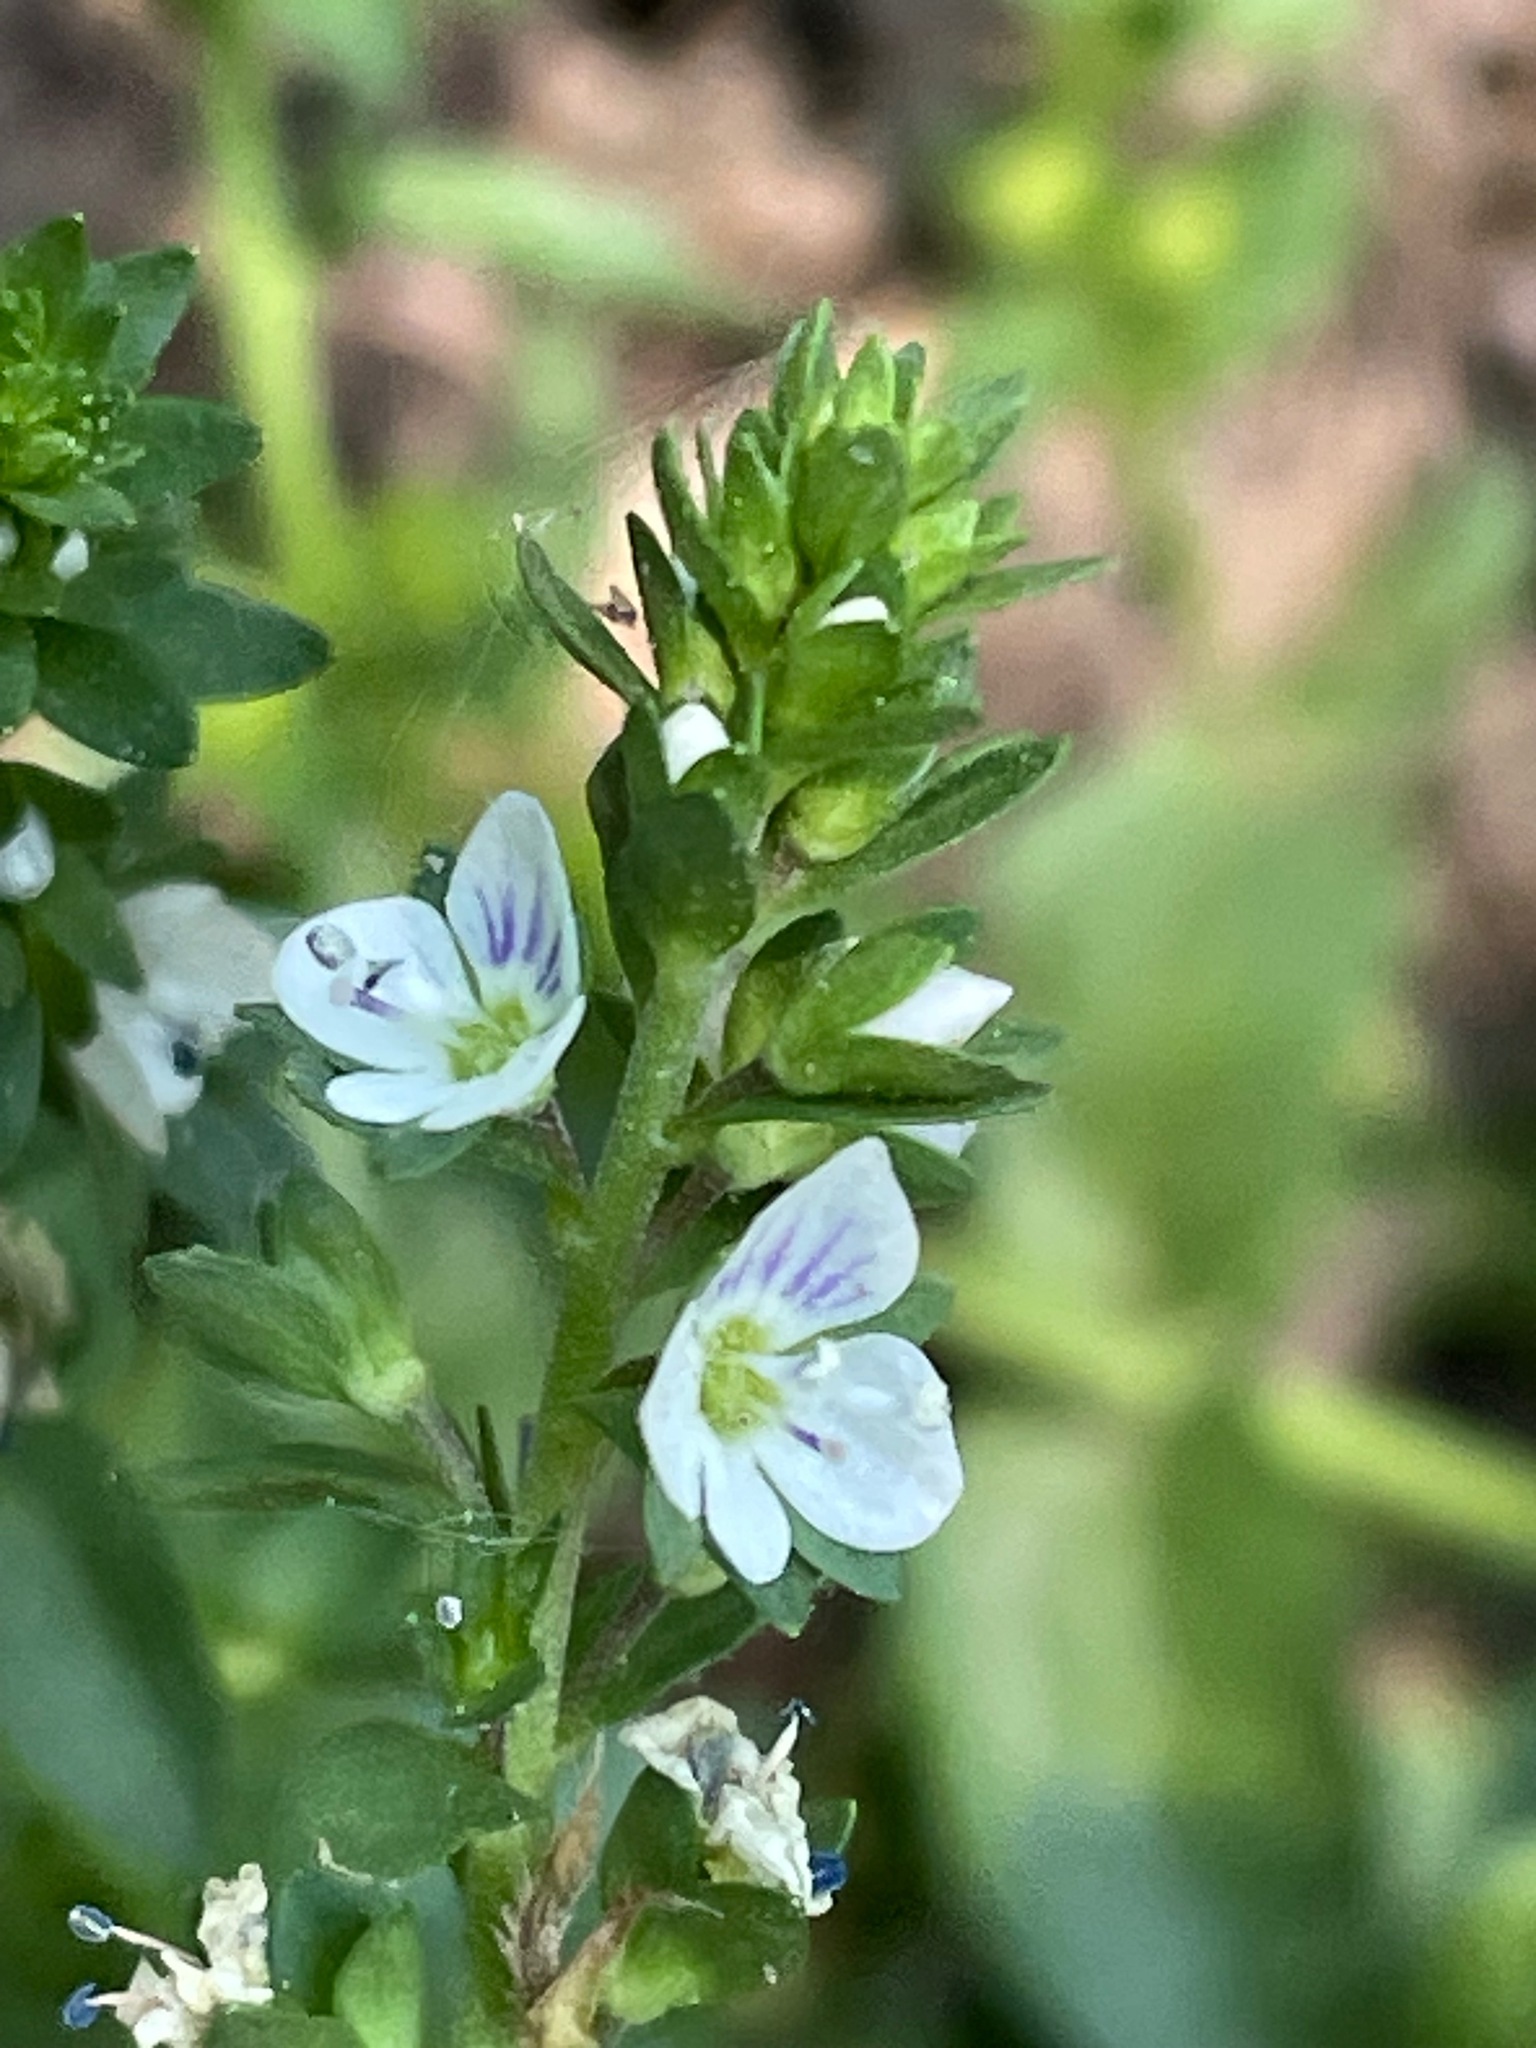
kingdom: Plantae
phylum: Tracheophyta
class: Magnoliopsida
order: Lamiales
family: Plantaginaceae
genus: Veronica
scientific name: Veronica serpyllifolia
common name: Thyme-leaved speedwell
